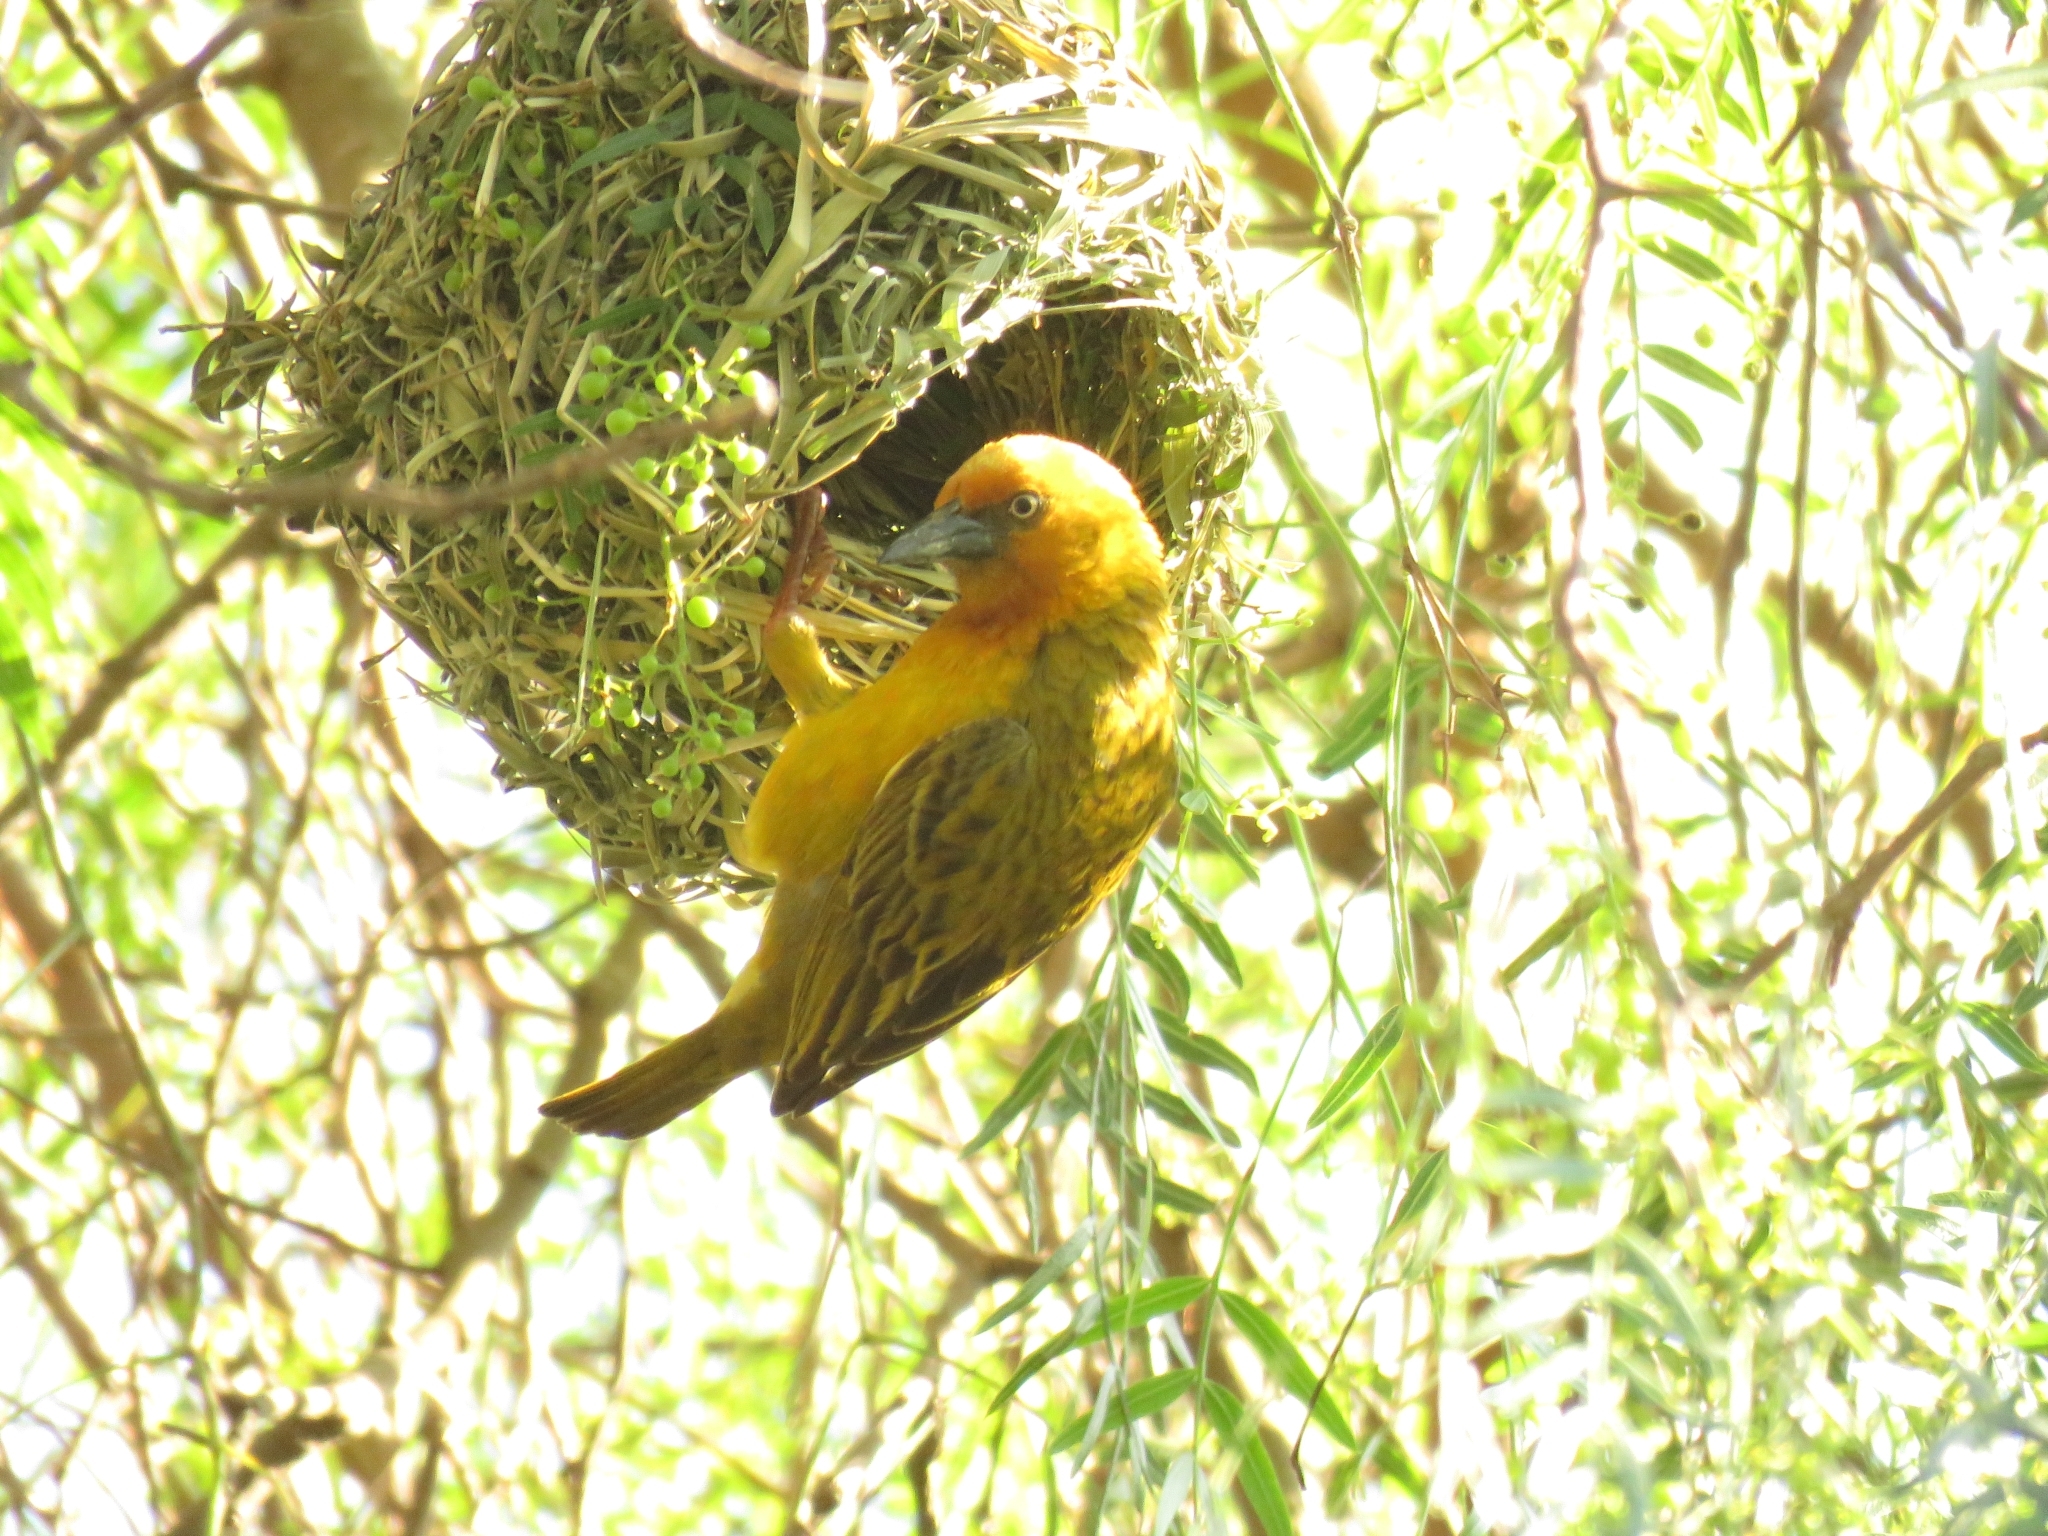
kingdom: Animalia
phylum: Chordata
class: Aves
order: Passeriformes
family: Ploceidae
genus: Ploceus
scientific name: Ploceus capensis
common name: Cape weaver
